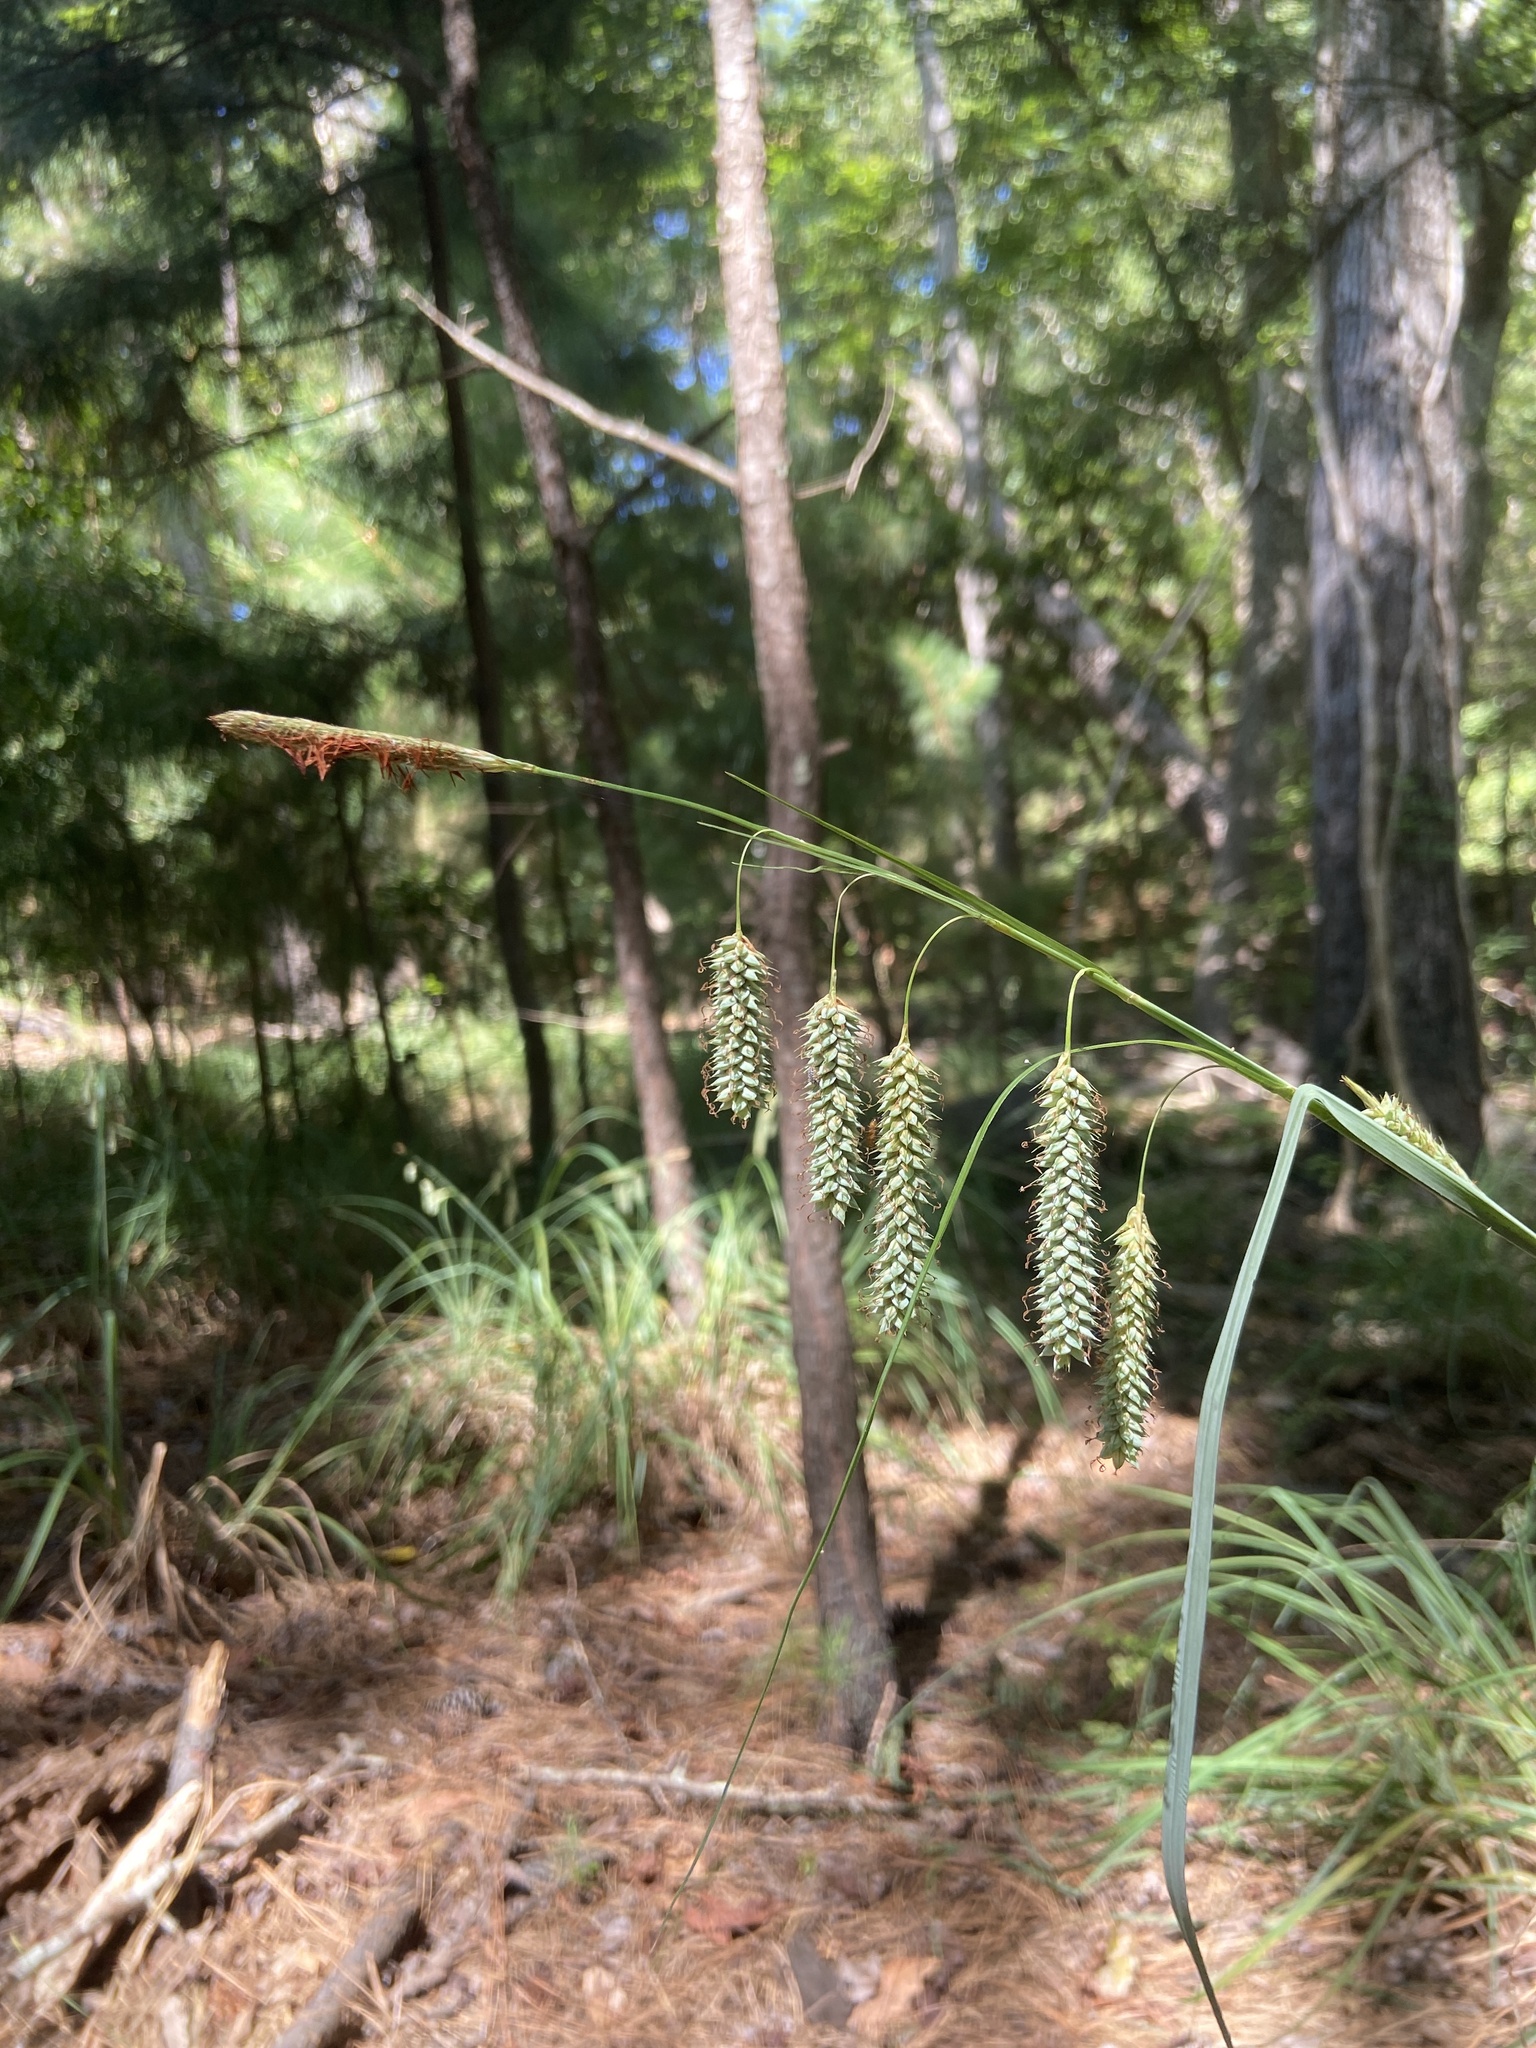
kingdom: Plantae
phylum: Tracheophyta
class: Liliopsida
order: Poales
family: Cyperaceae
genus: Carex
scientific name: Carex glaucescens
